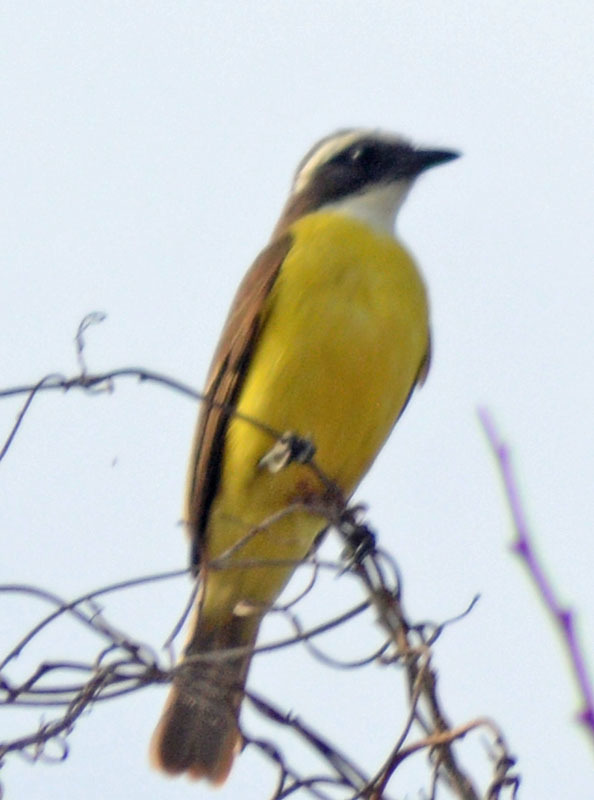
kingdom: Animalia
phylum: Chordata
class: Aves
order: Passeriformes
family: Tyrannidae
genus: Myiozetetes
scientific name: Myiozetetes similis
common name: Social flycatcher
